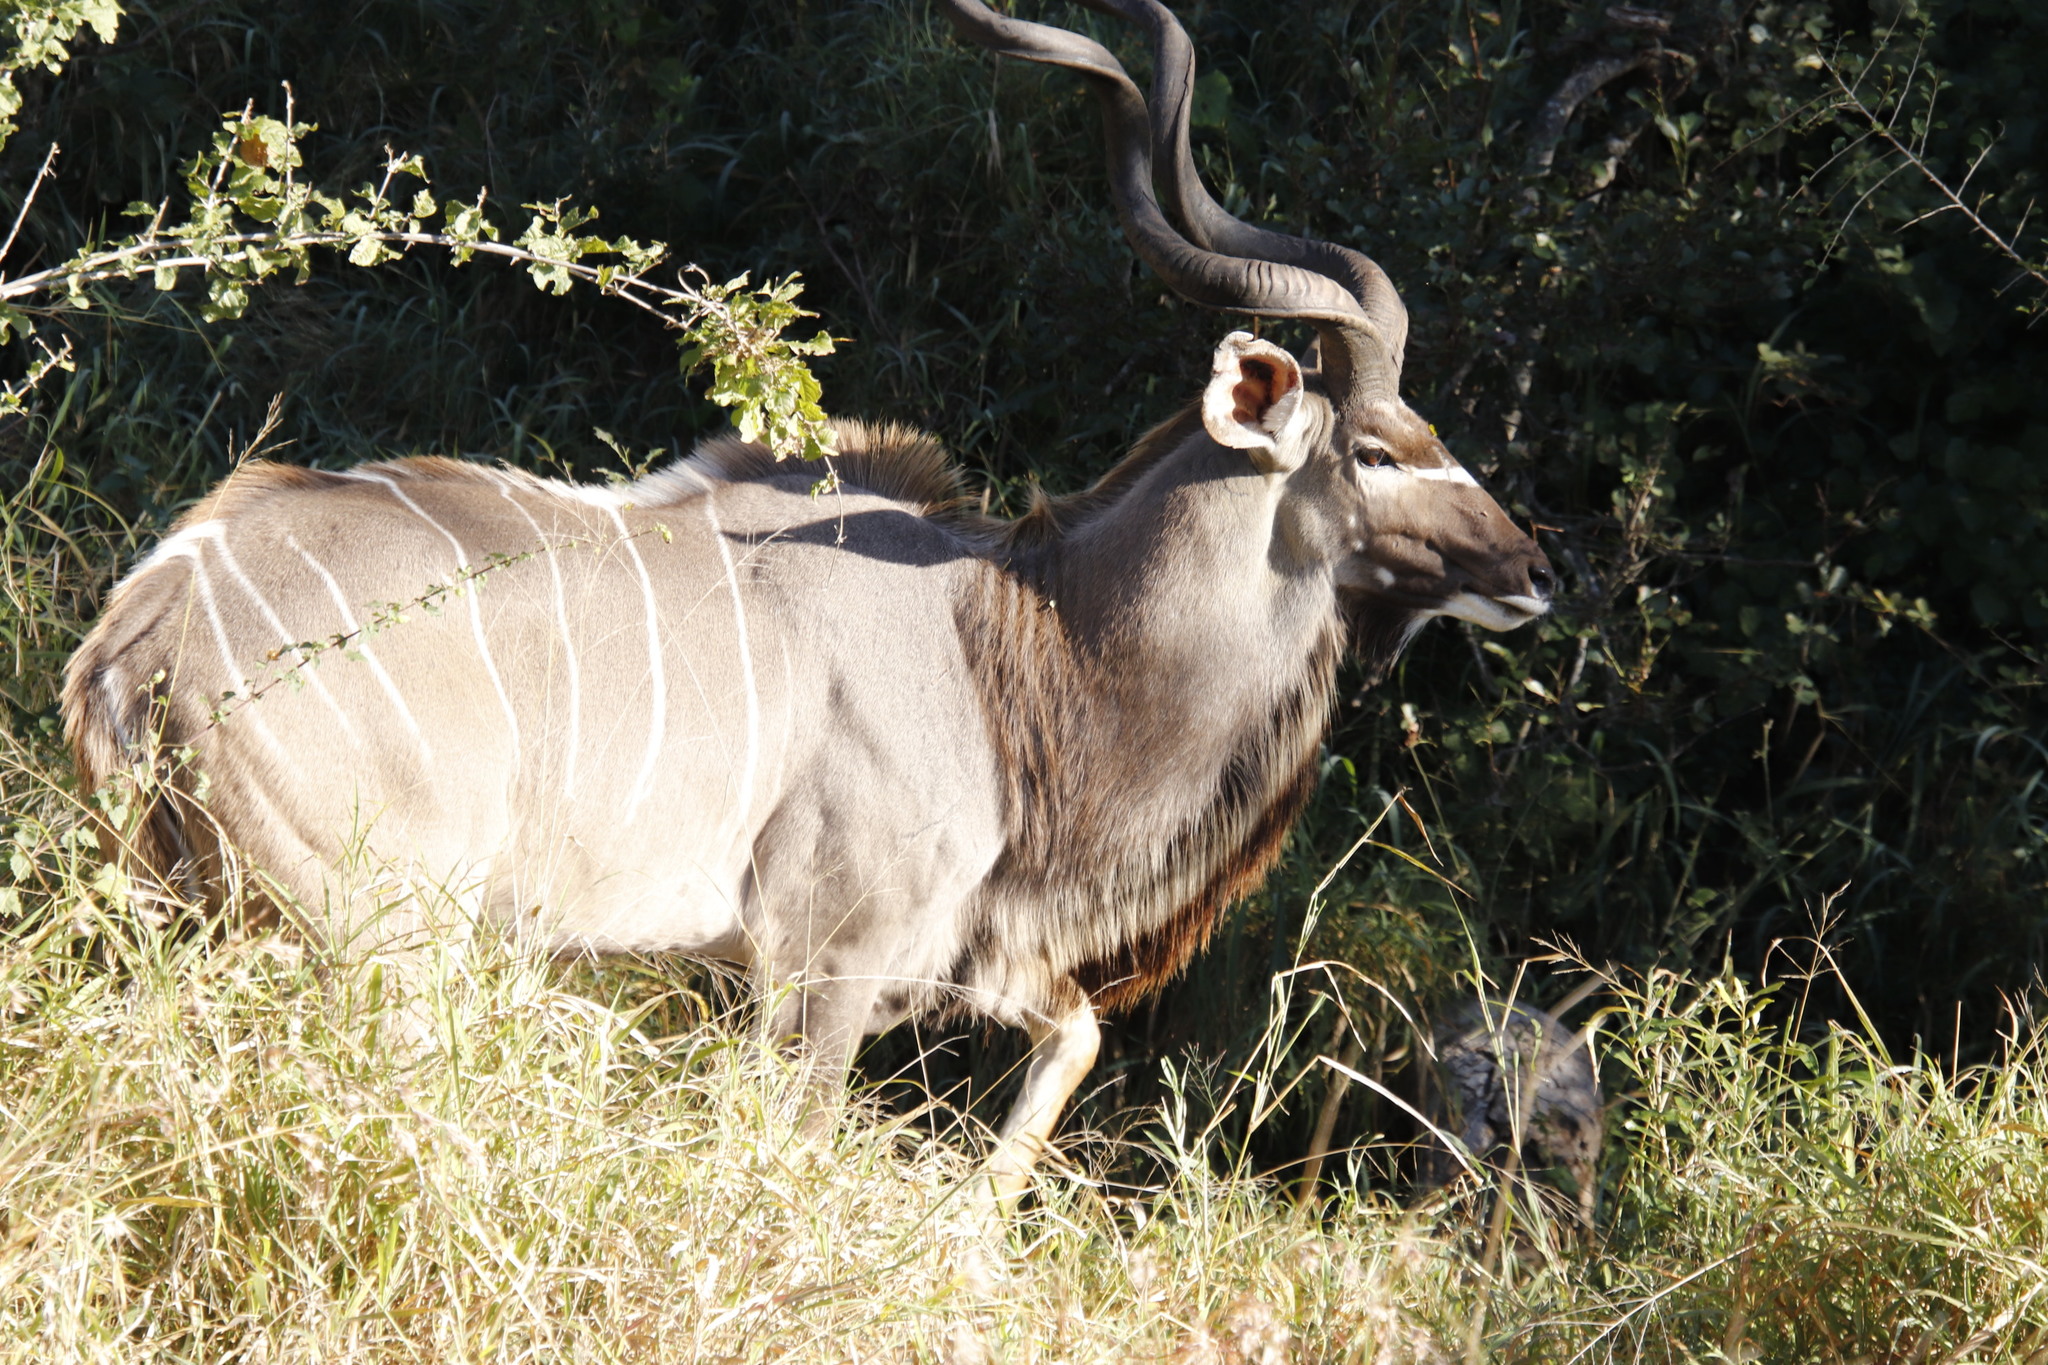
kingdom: Animalia
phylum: Chordata
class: Mammalia
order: Artiodactyla
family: Bovidae
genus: Tragelaphus
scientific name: Tragelaphus strepsiceros
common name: Greater kudu
